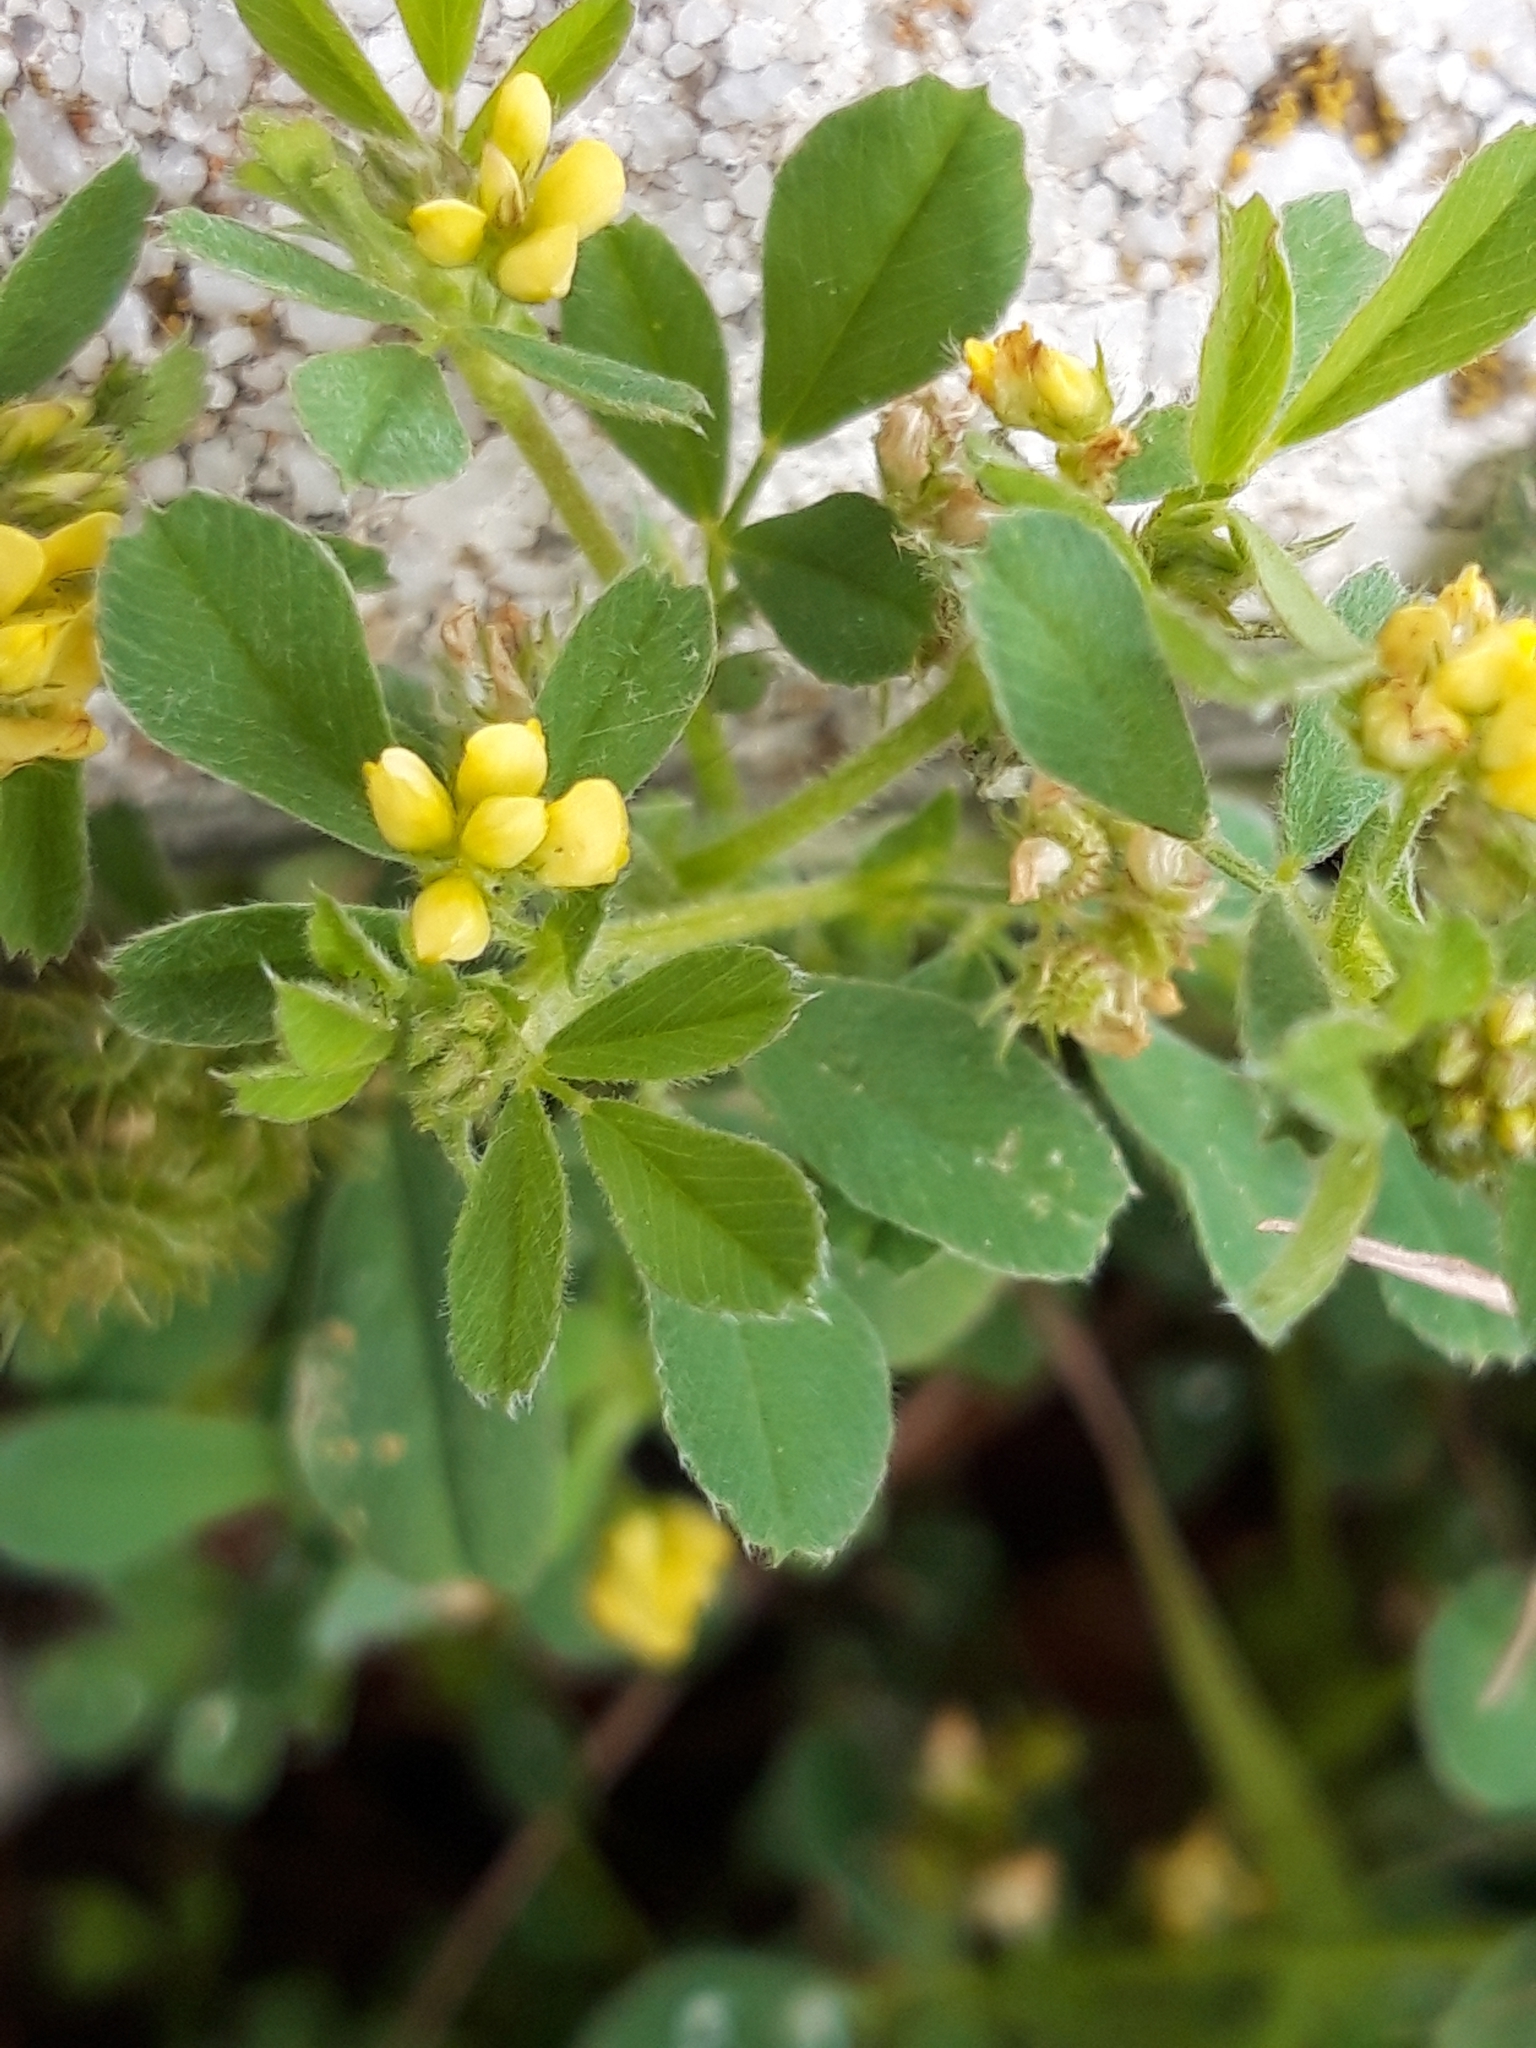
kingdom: Plantae
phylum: Tracheophyta
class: Magnoliopsida
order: Fabales
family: Fabaceae
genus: Medicago
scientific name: Medicago minima
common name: Little bur-clover
